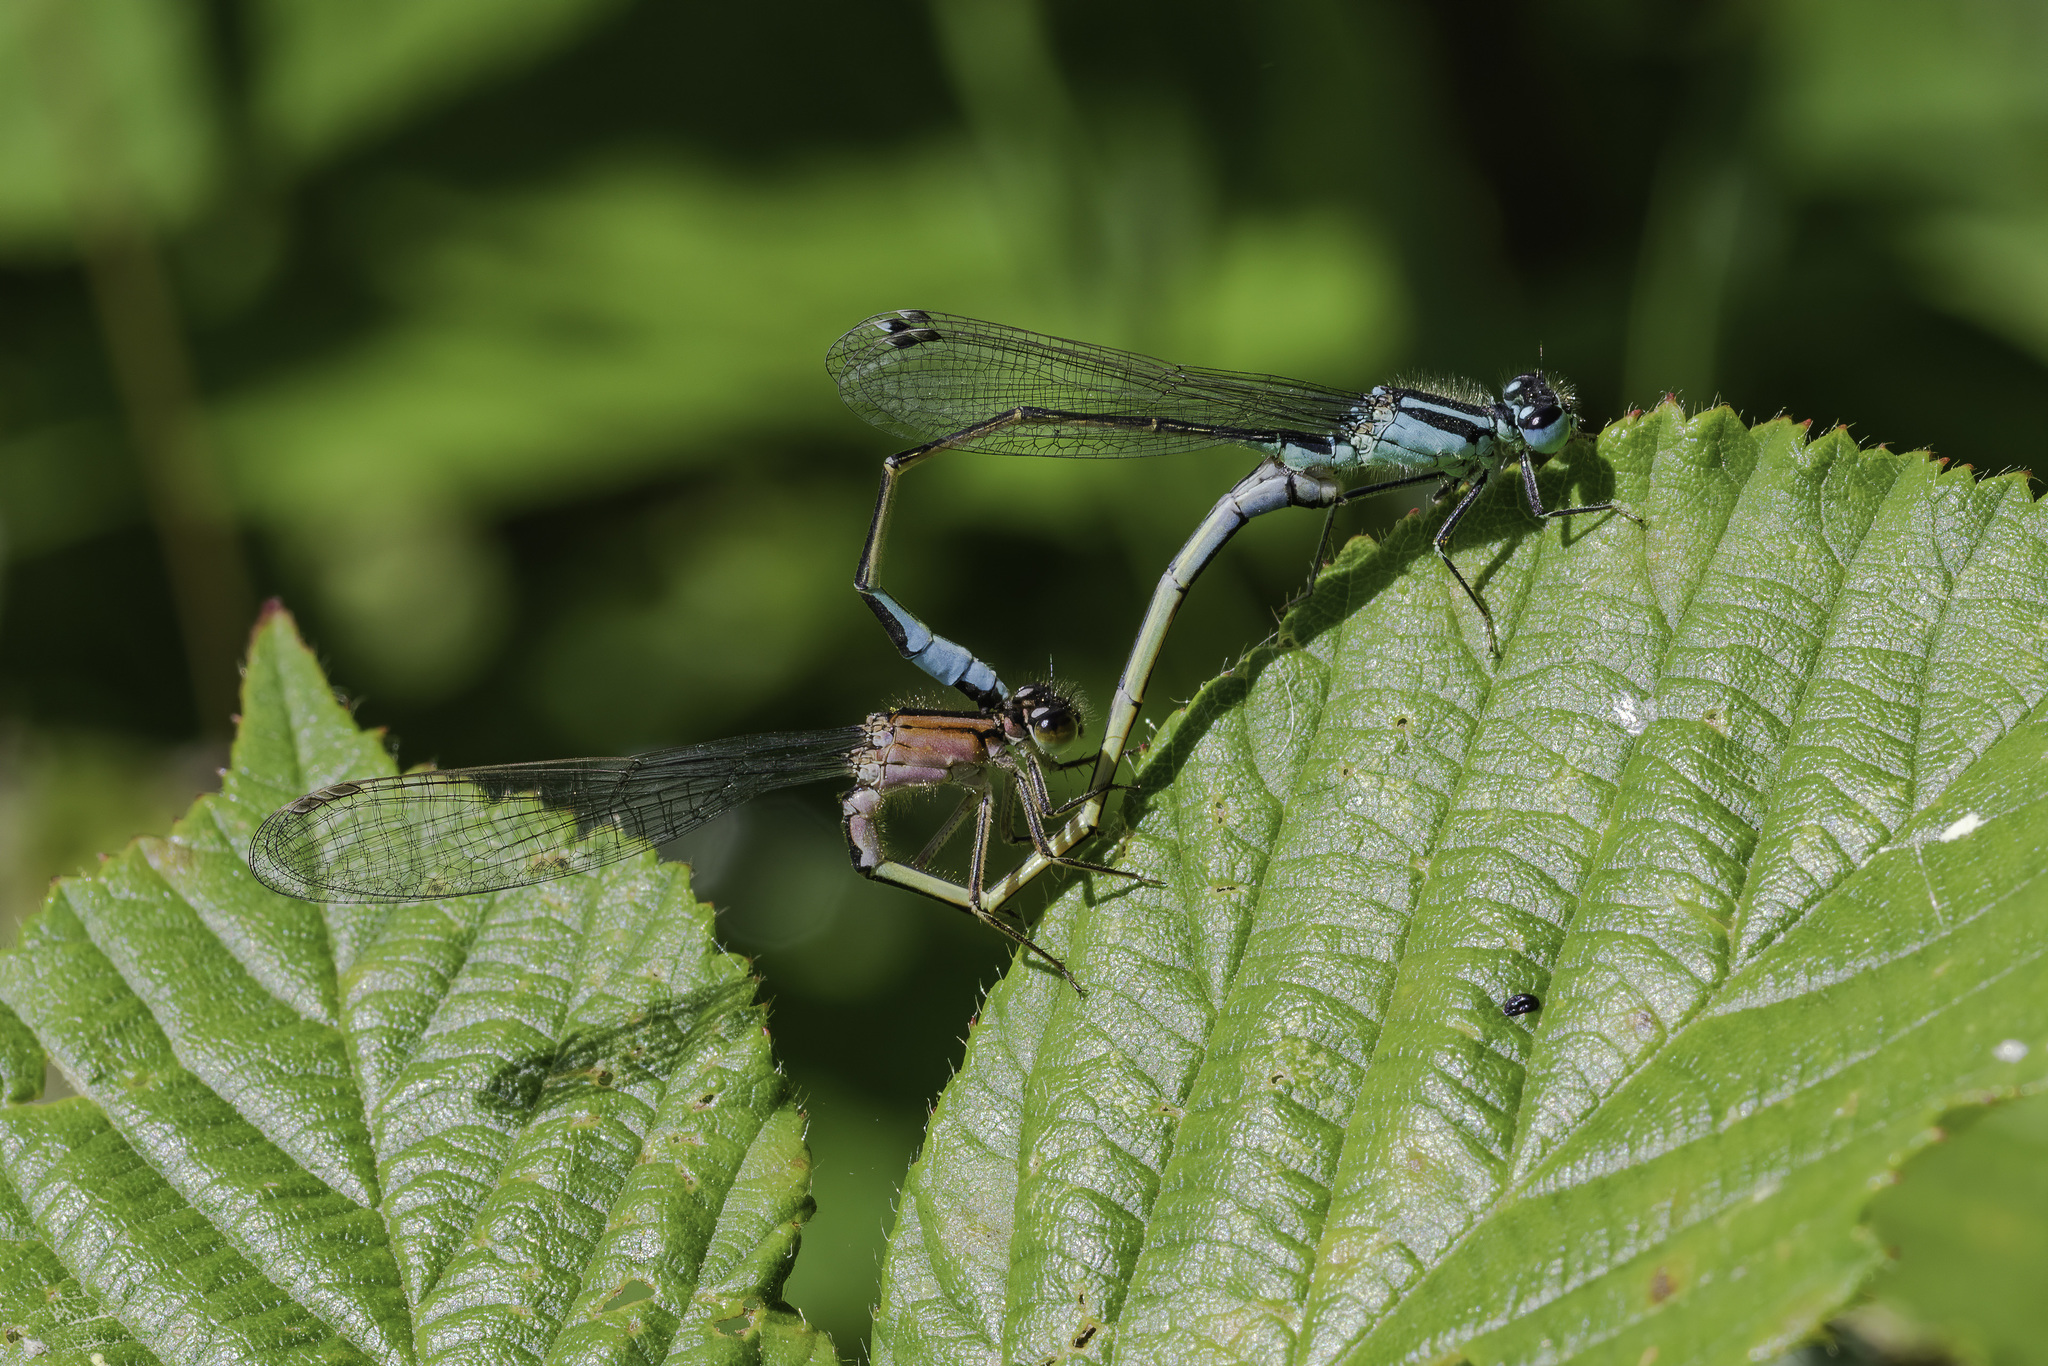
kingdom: Animalia
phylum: Arthropoda
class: Insecta
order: Odonata
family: Coenagrionidae
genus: Ischnura
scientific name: Ischnura elegans
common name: Blue-tailed damselfly
